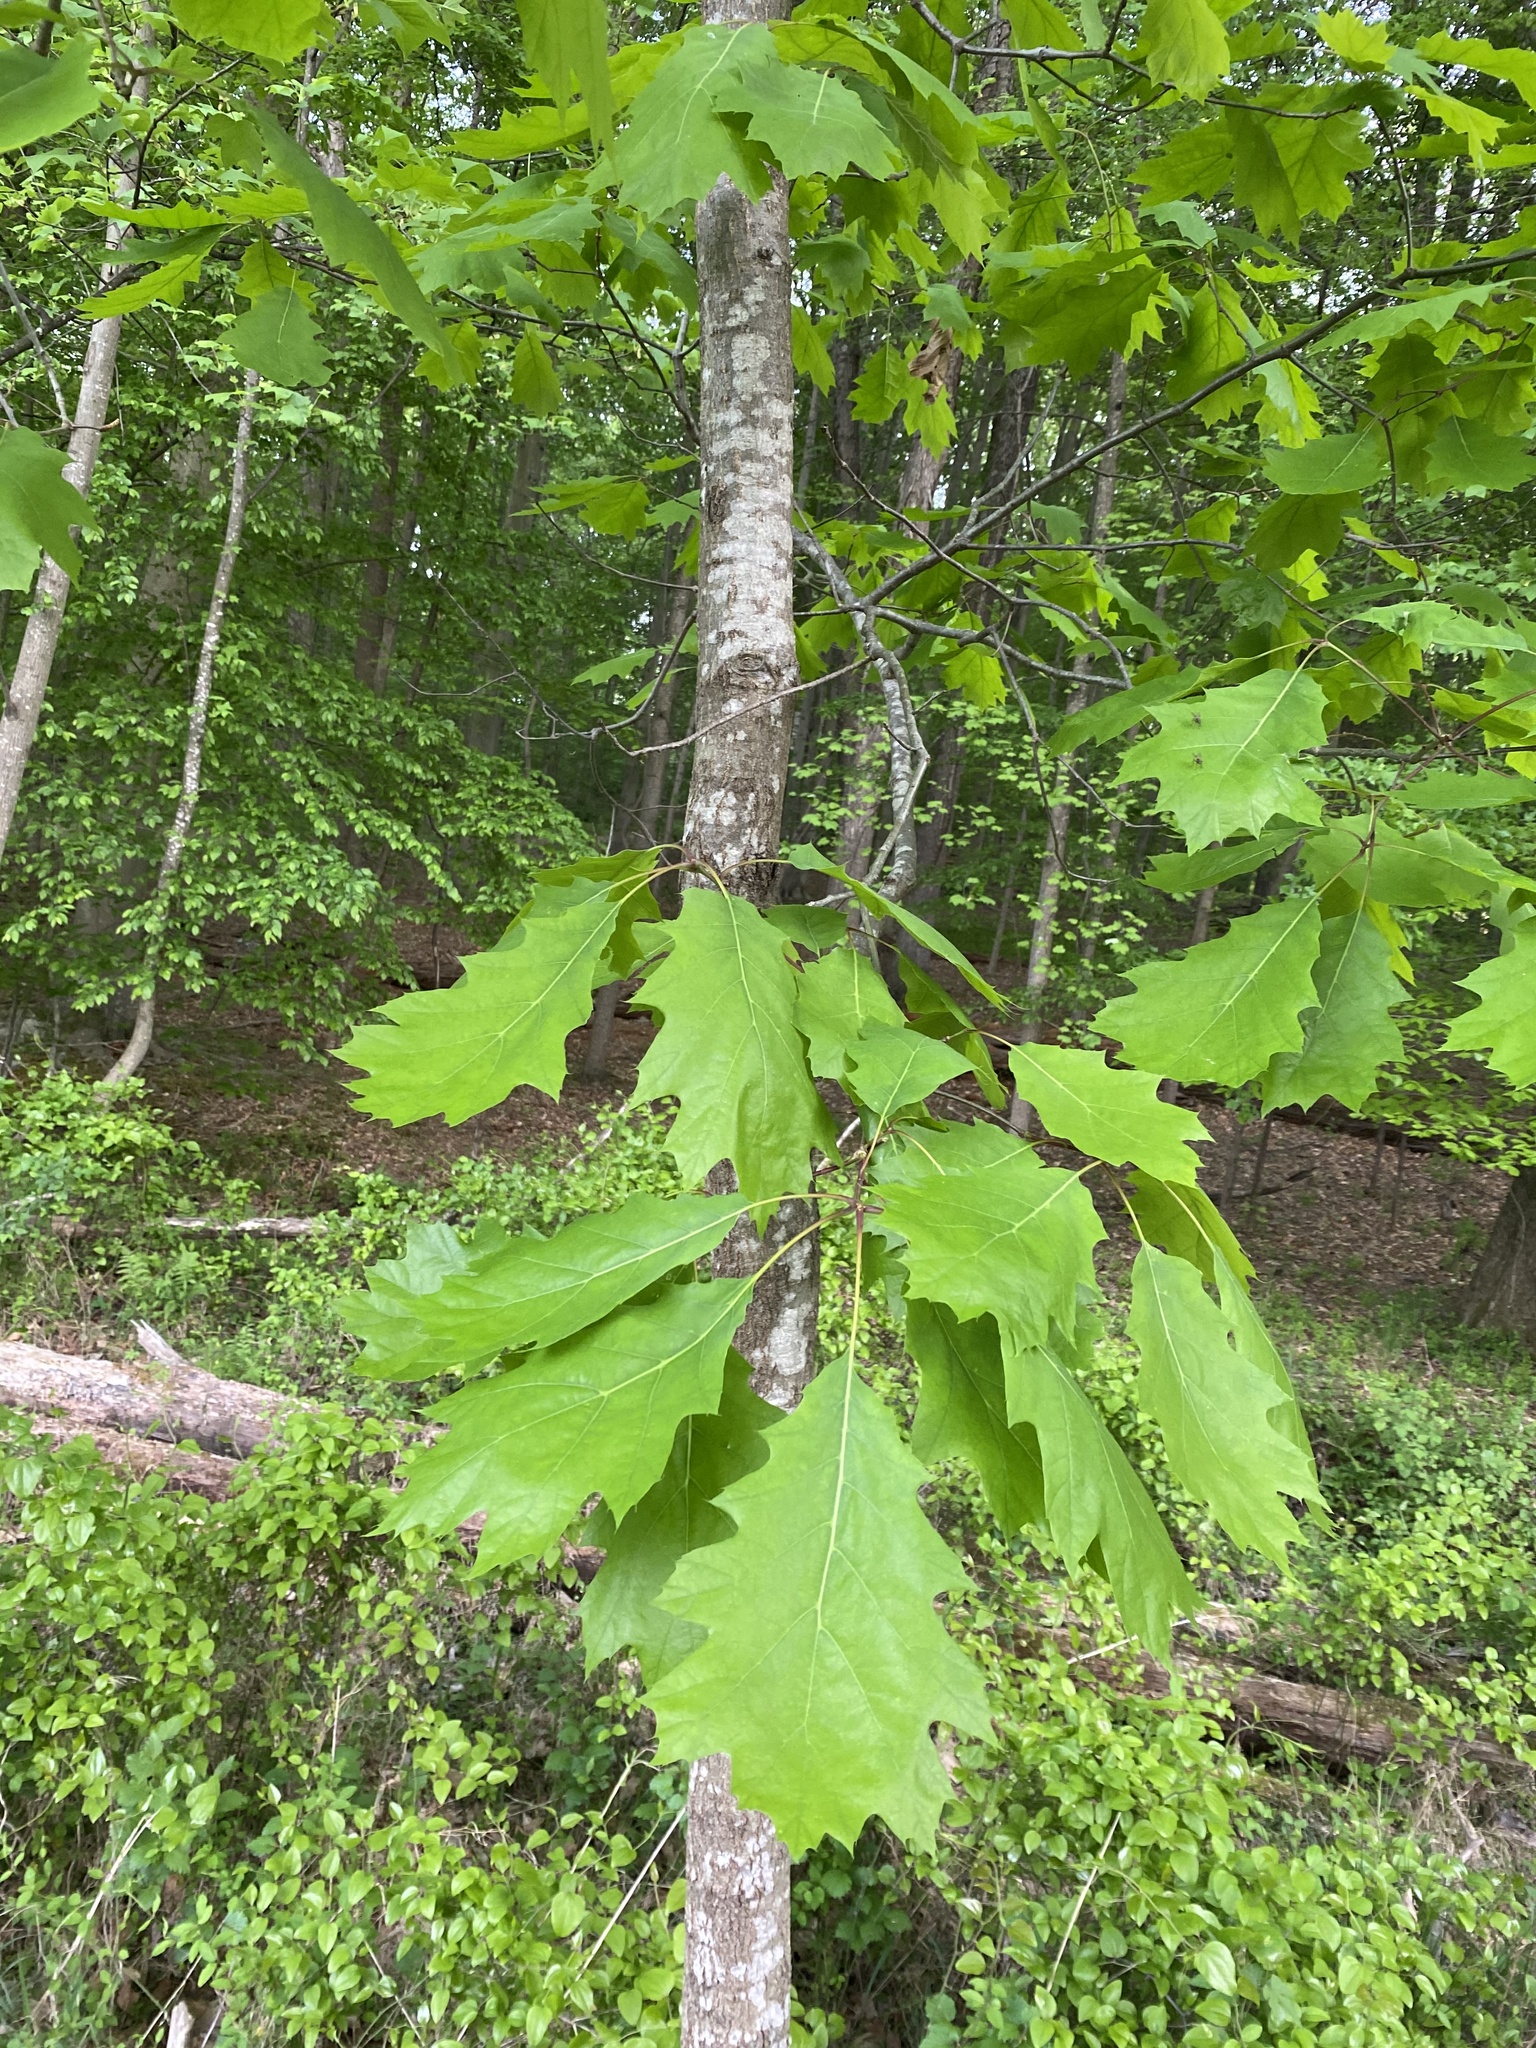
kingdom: Plantae
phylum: Tracheophyta
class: Magnoliopsida
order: Fagales
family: Fagaceae
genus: Quercus
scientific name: Quercus rubra
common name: Red oak
